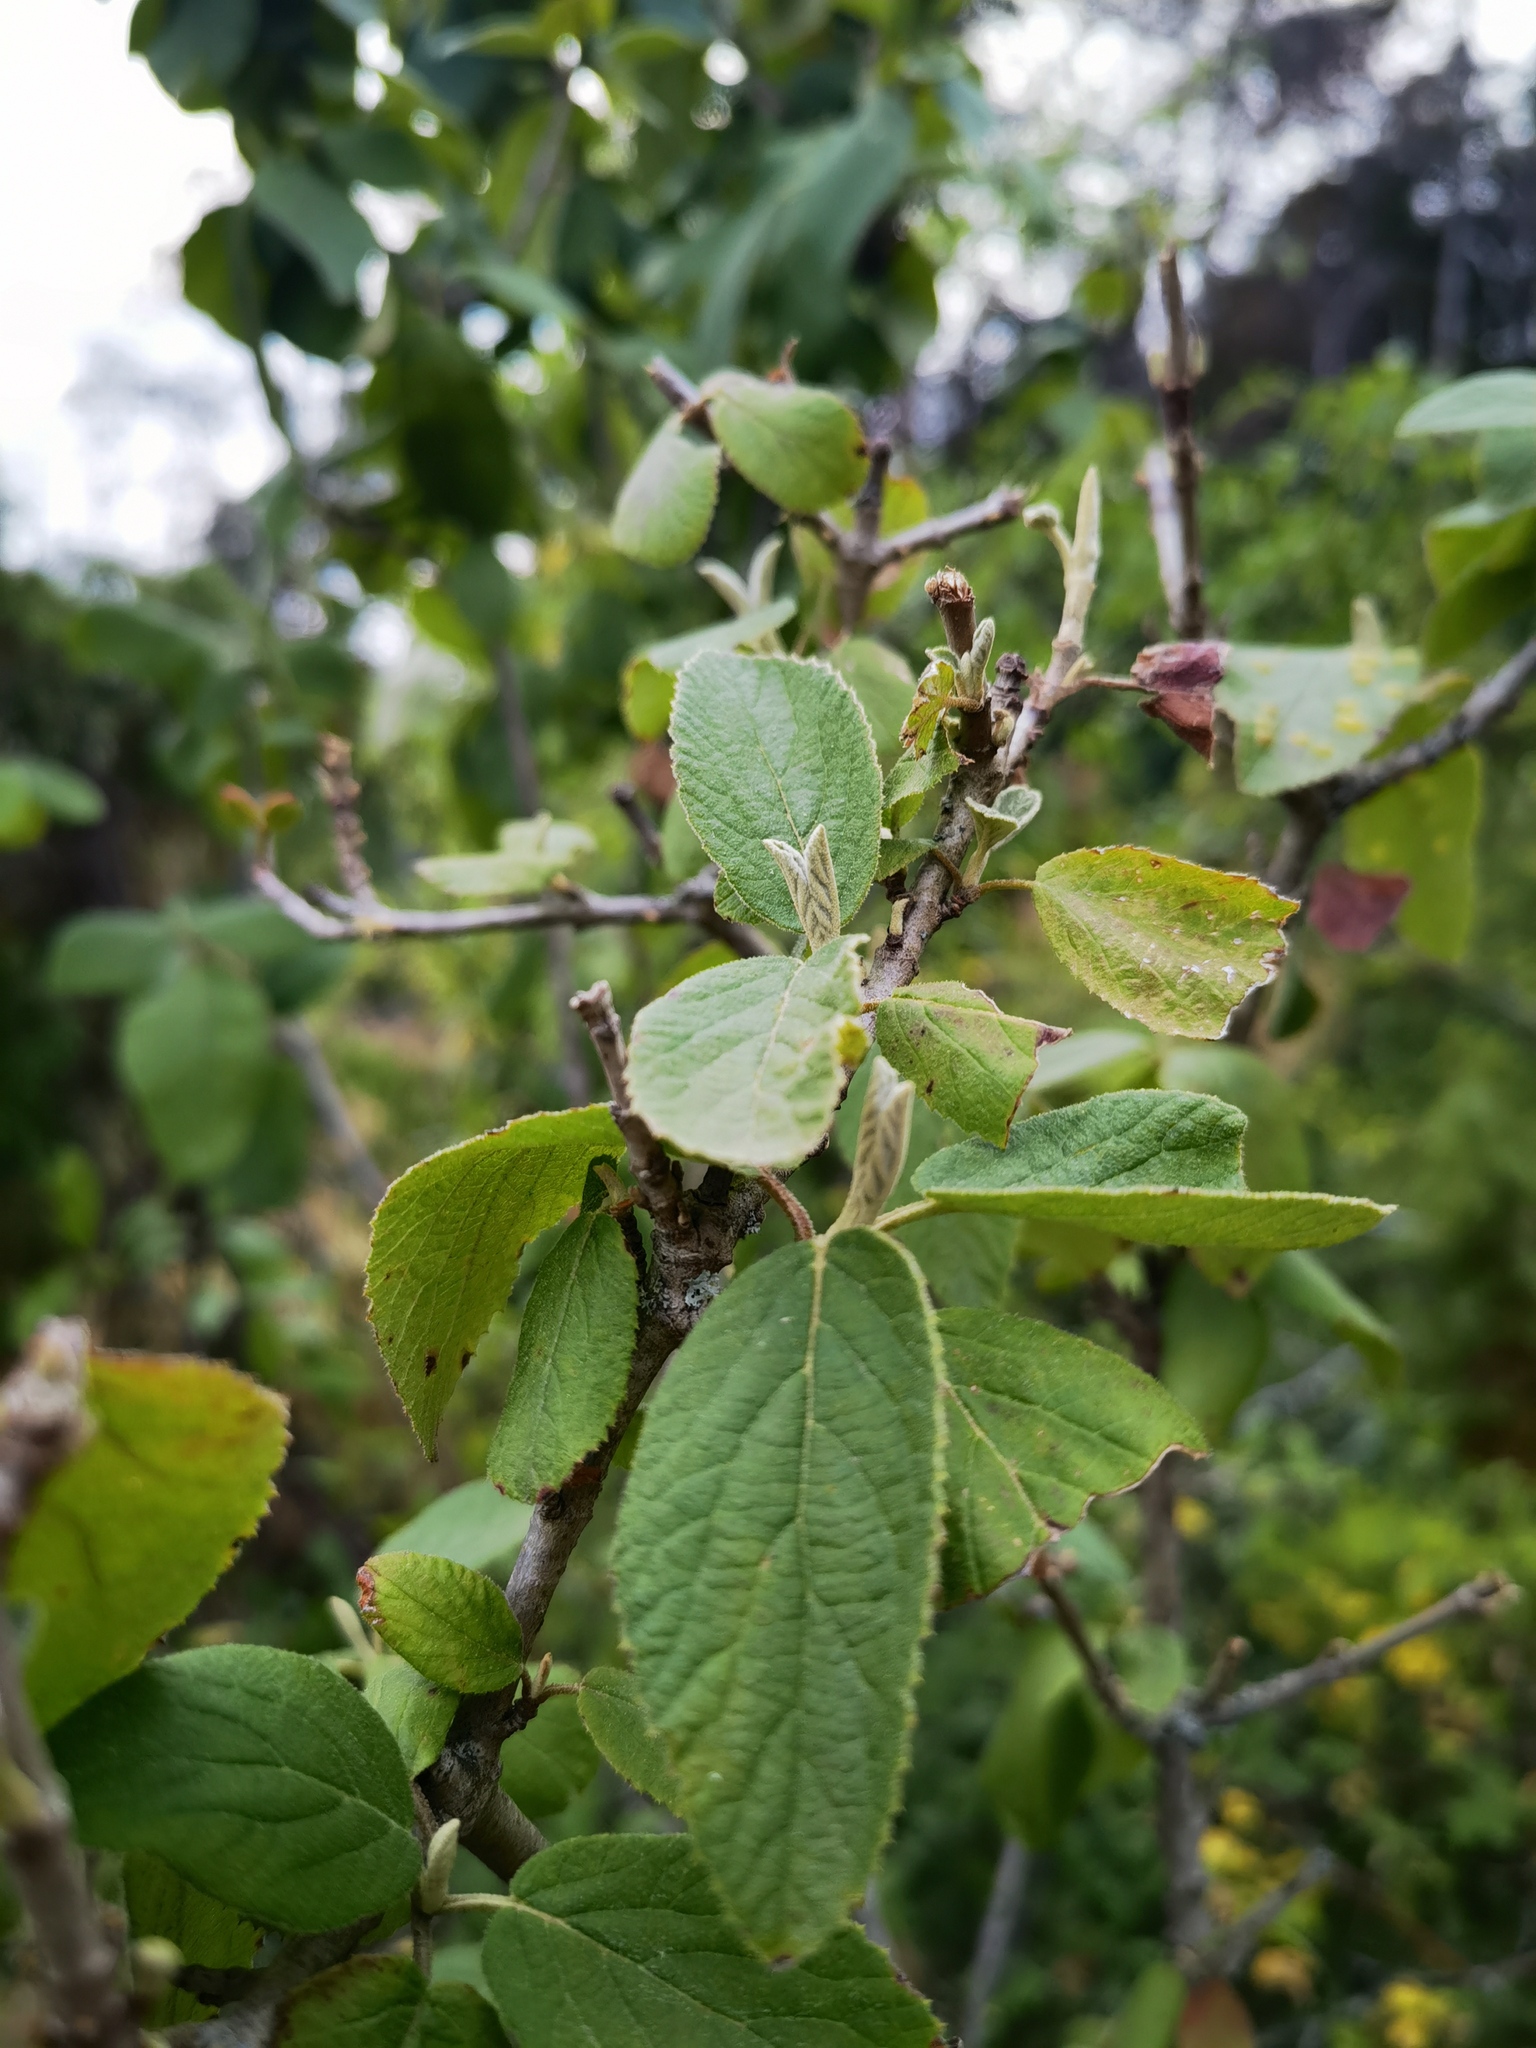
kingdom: Plantae
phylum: Tracheophyta
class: Magnoliopsida
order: Dipsacales
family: Viburnaceae
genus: Viburnum
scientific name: Viburnum lantana
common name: Wayfaring tree
